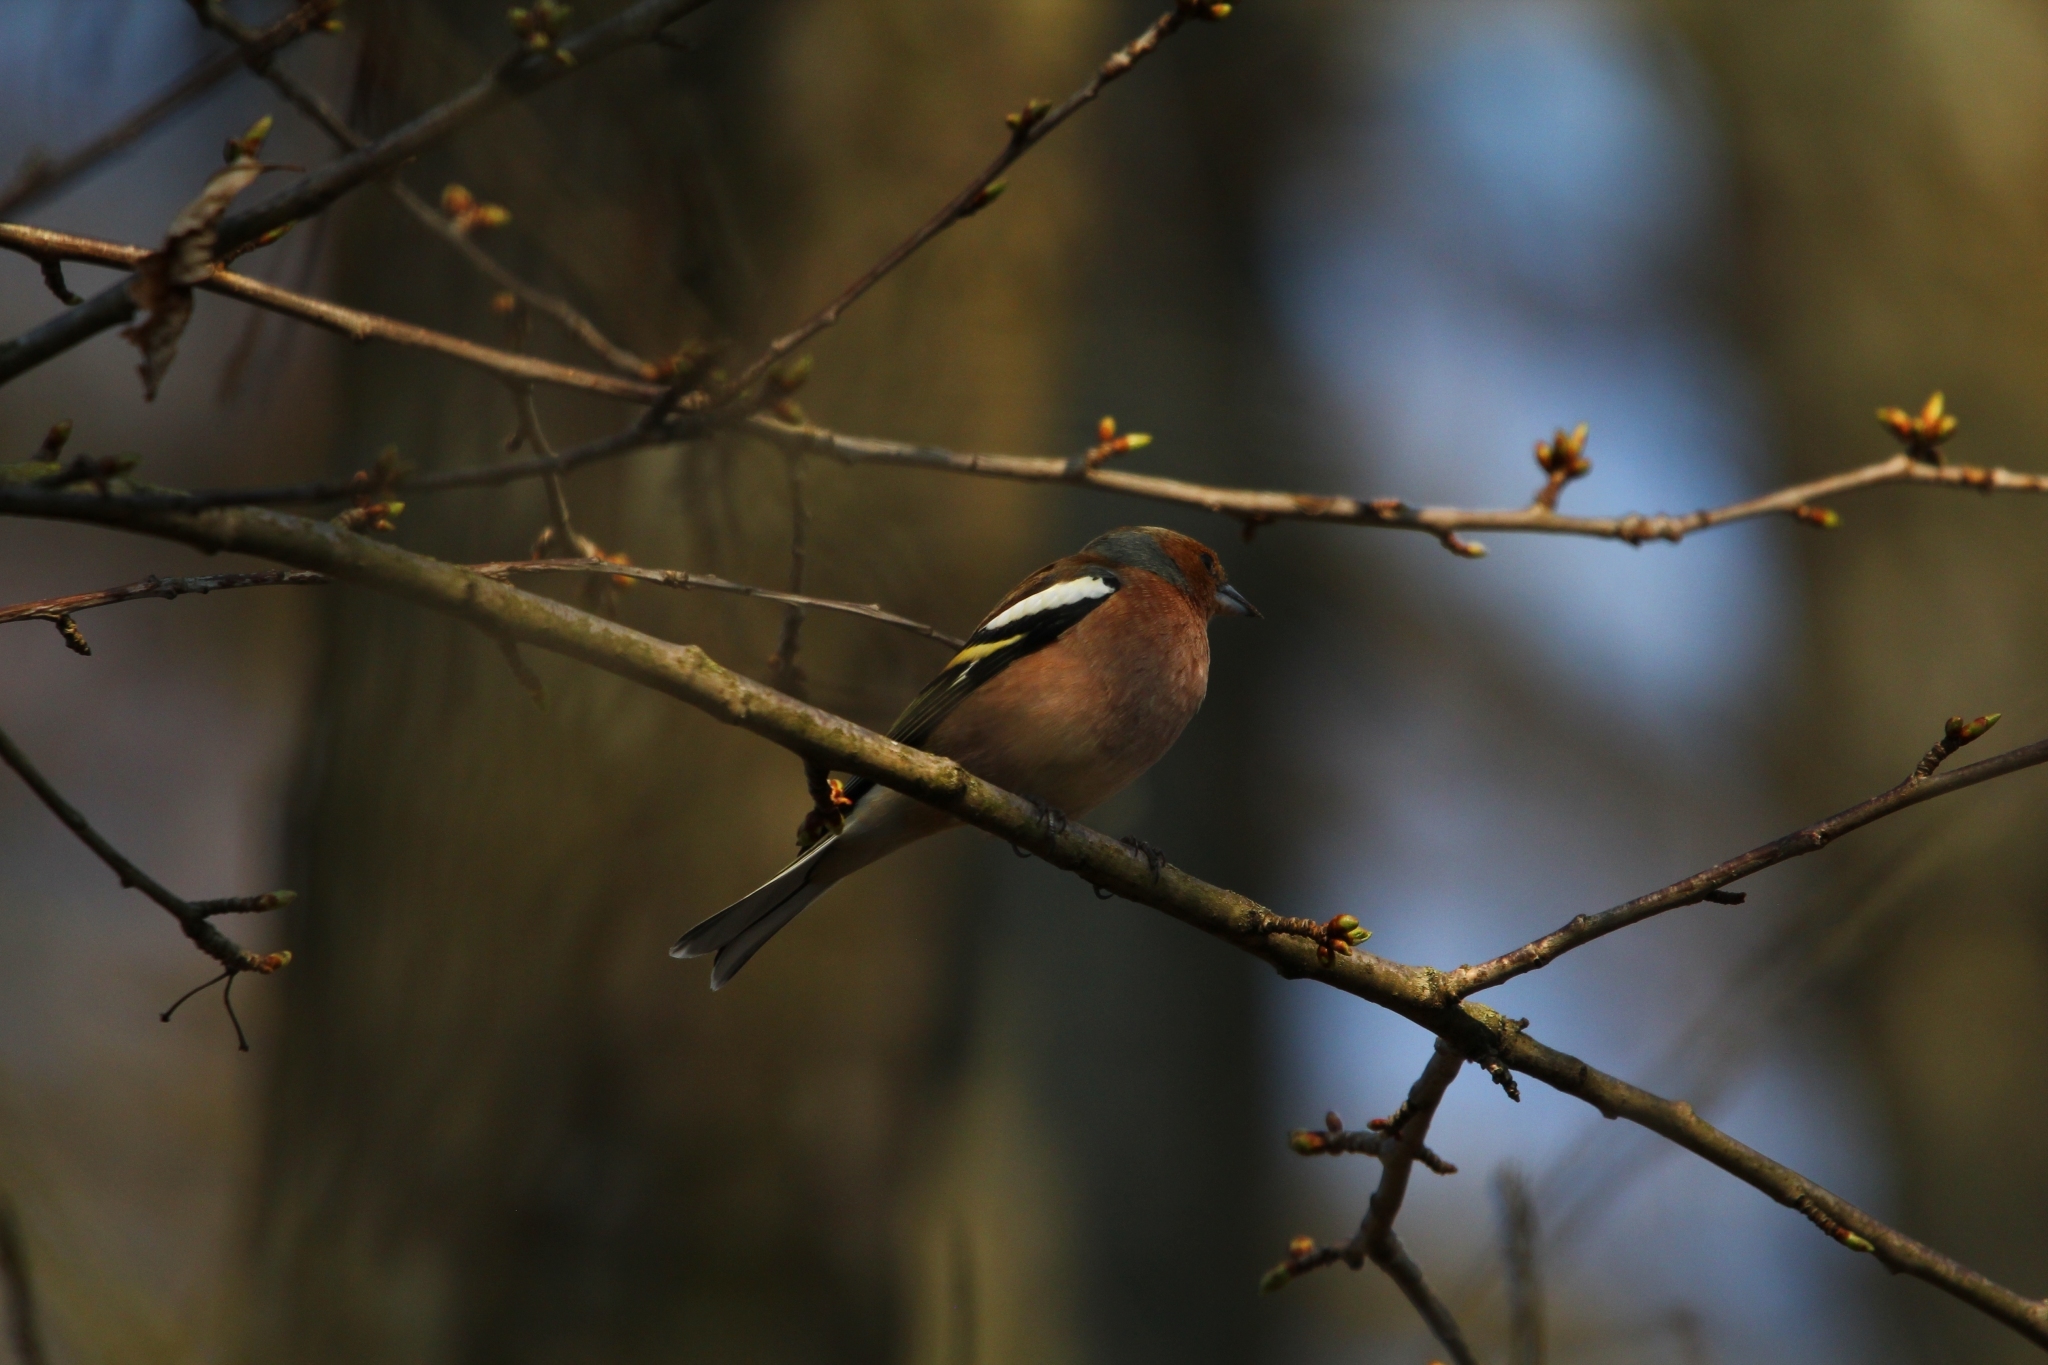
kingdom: Animalia
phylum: Chordata
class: Aves
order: Passeriformes
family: Fringillidae
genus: Fringilla
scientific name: Fringilla coelebs
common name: Common chaffinch
